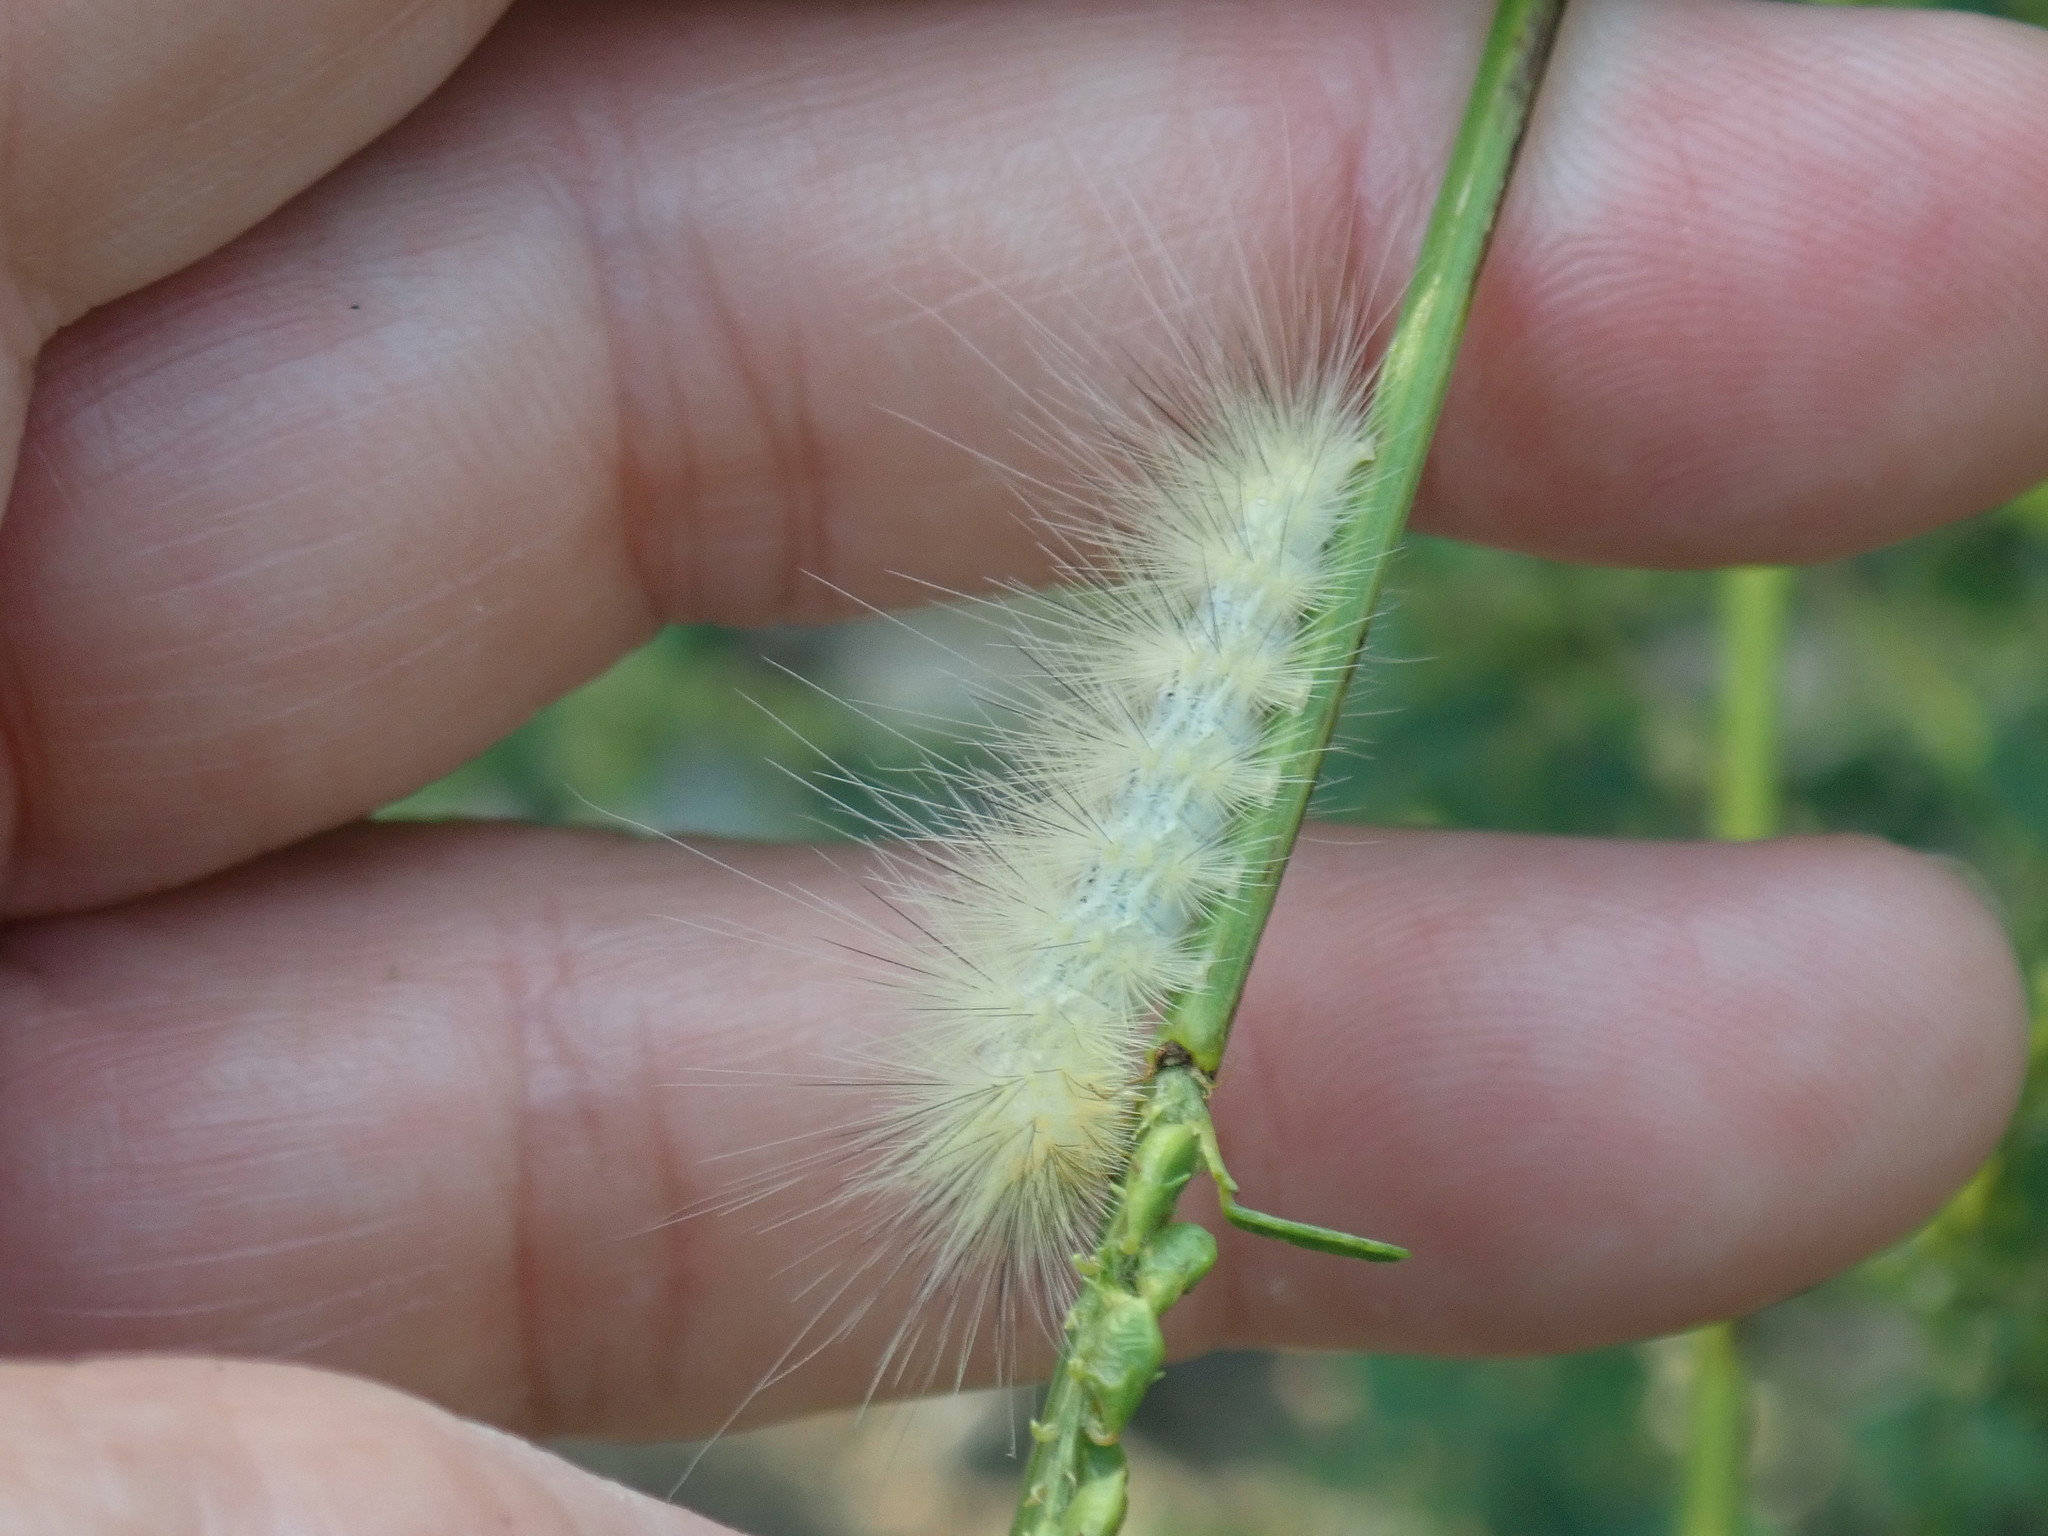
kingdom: Animalia
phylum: Arthropoda
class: Insecta
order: Lepidoptera
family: Erebidae
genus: Spilosoma
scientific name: Spilosoma virginica
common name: Virginia tiger moth
